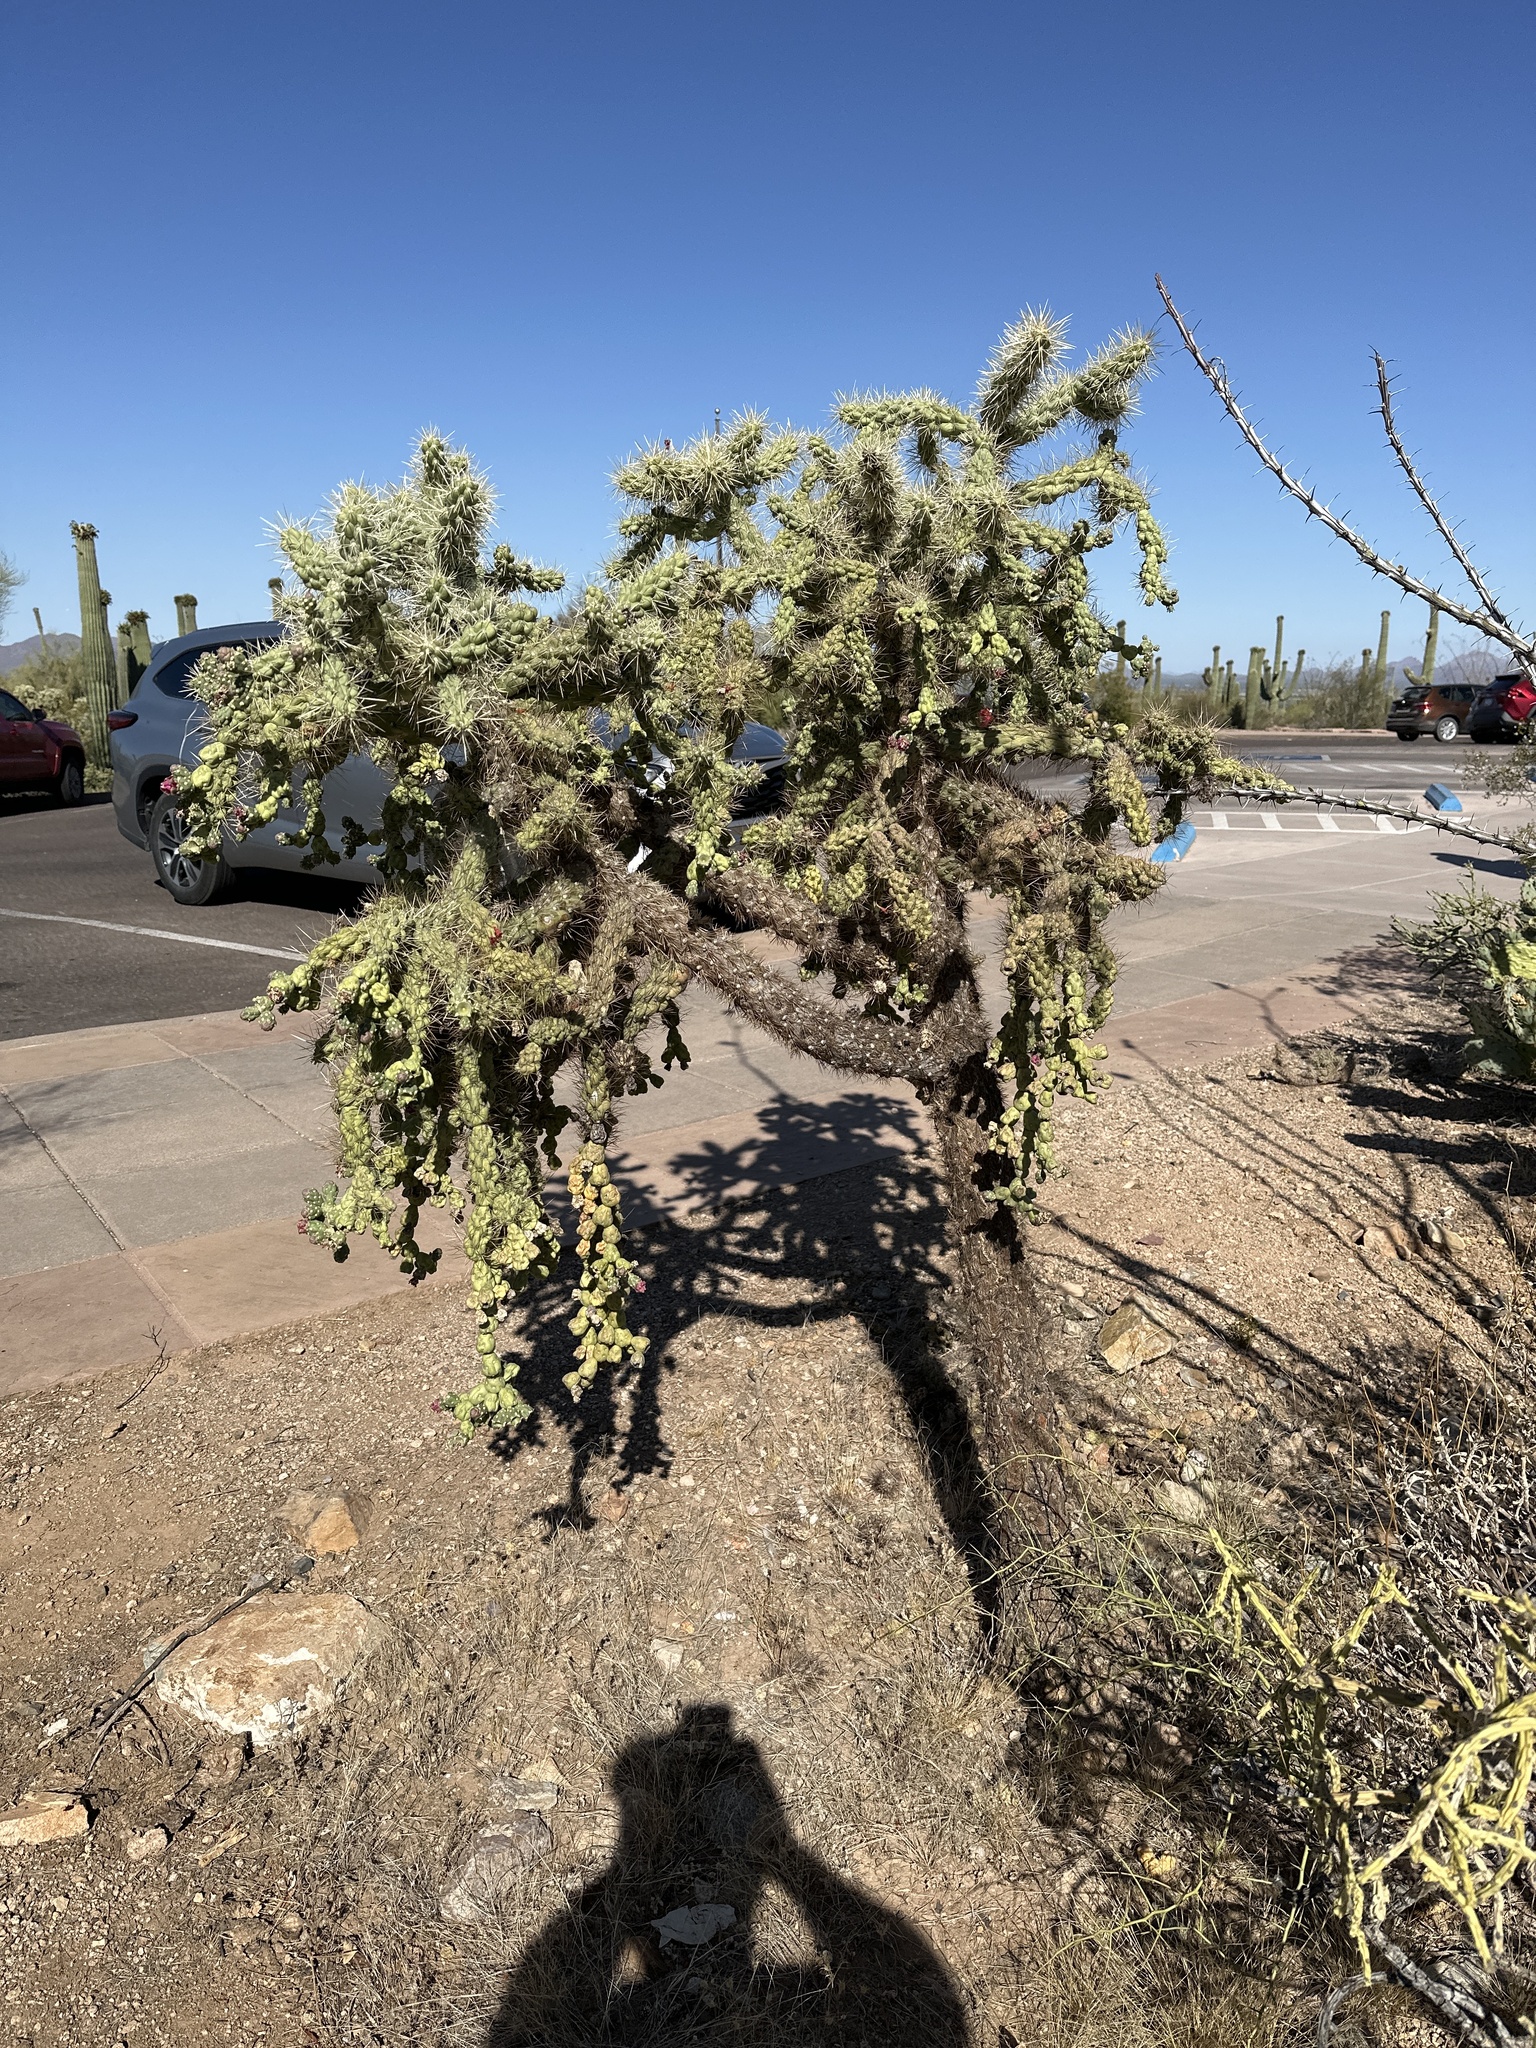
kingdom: Plantae
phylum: Tracheophyta
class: Magnoliopsida
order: Caryophyllales
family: Cactaceae
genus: Cylindropuntia
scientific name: Cylindropuntia fulgida
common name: Jumping cholla
